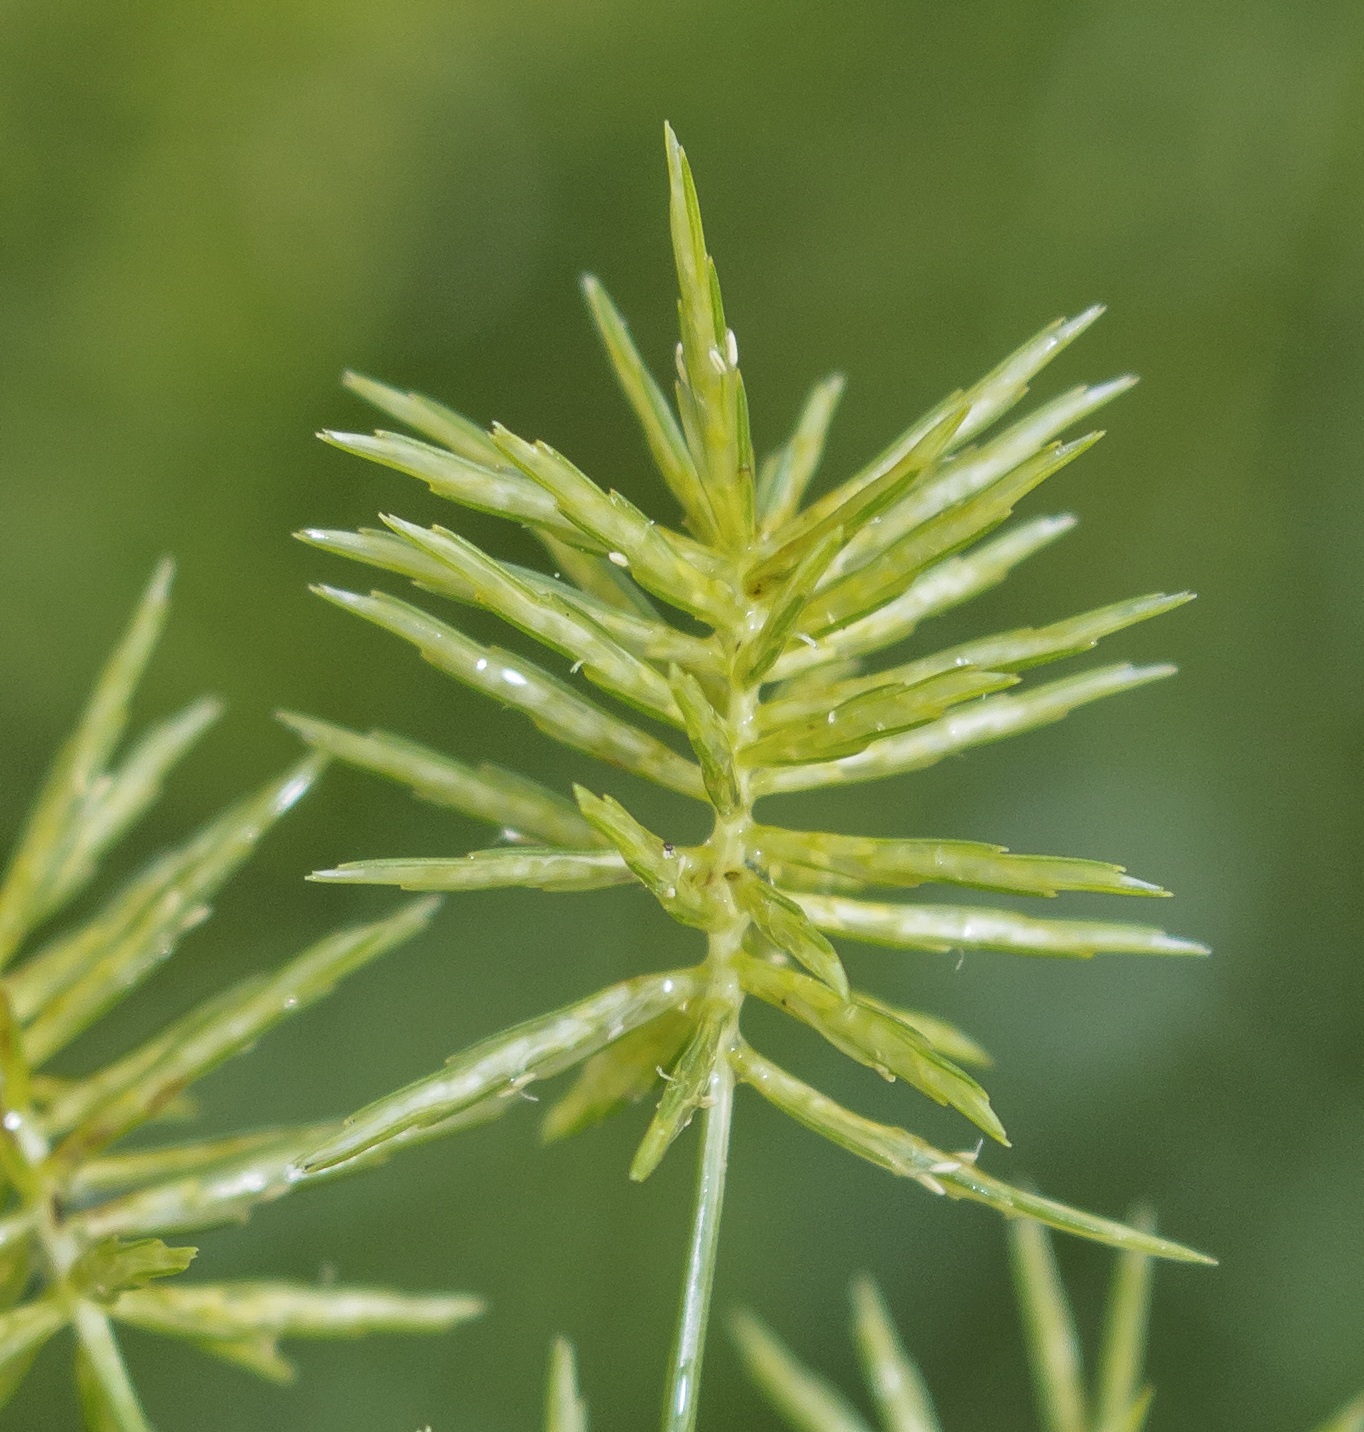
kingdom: Plantae
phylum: Tracheophyta
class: Liliopsida
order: Poales
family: Cyperaceae
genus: Cyperus
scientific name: Cyperus strigosus
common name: False nutsedge
